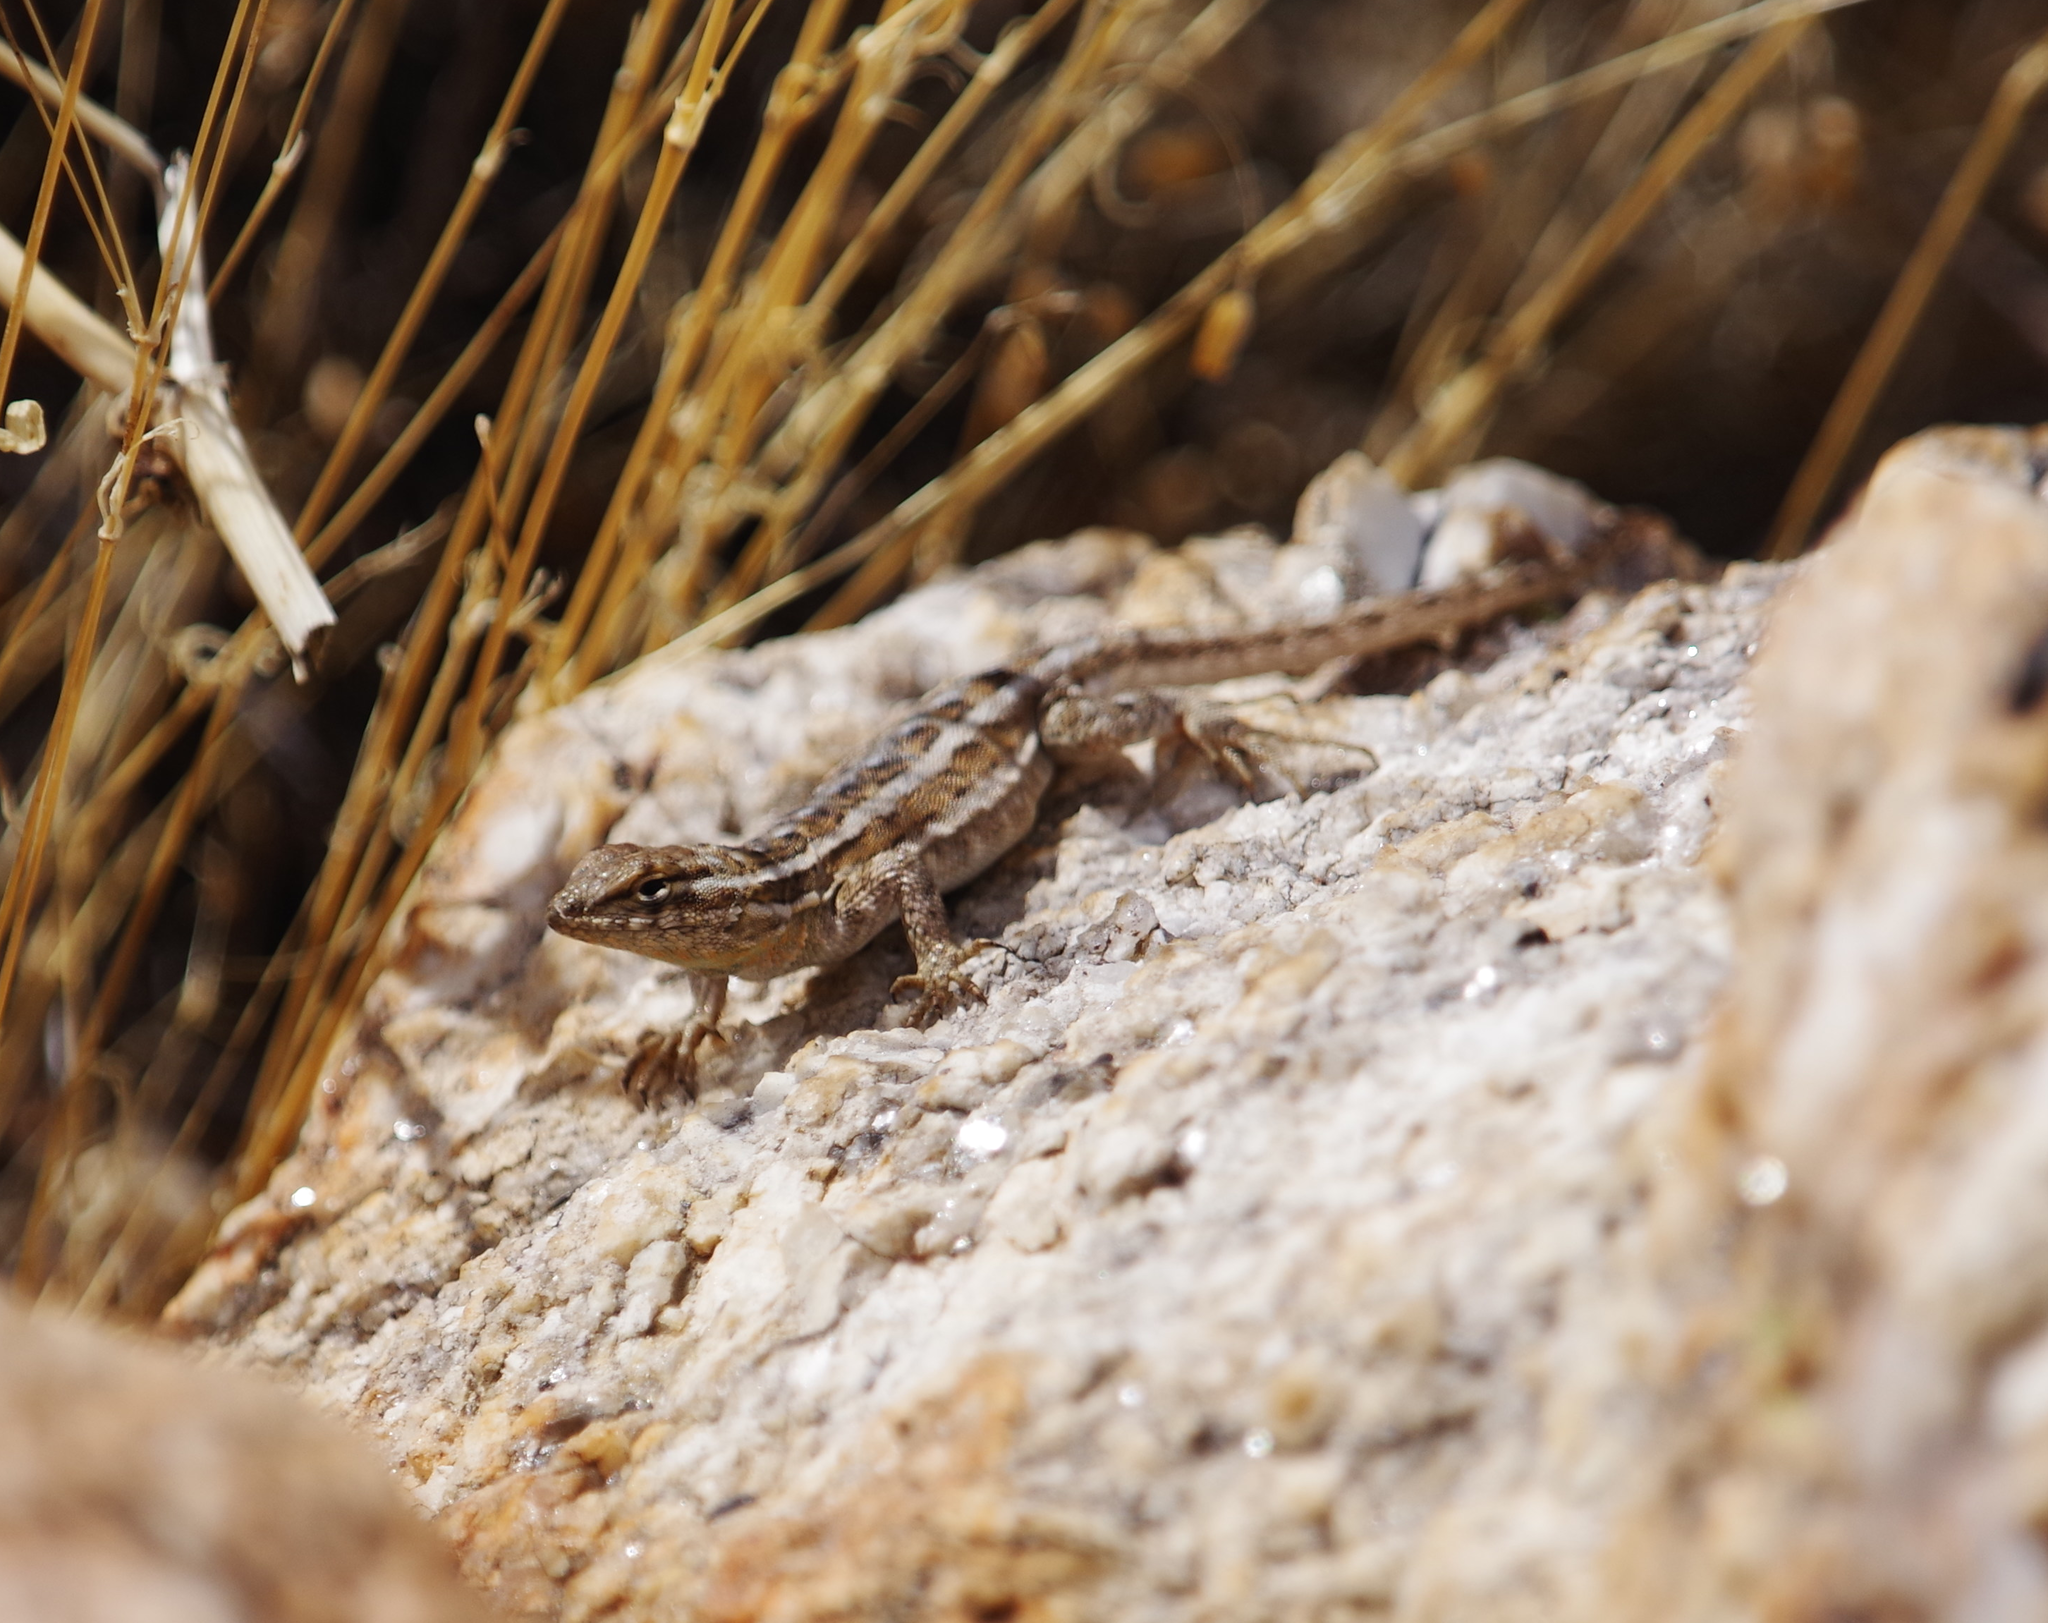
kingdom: Animalia
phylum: Chordata
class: Squamata
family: Phrynosomatidae
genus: Uta
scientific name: Uta stansburiana
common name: Side-blotched lizard
